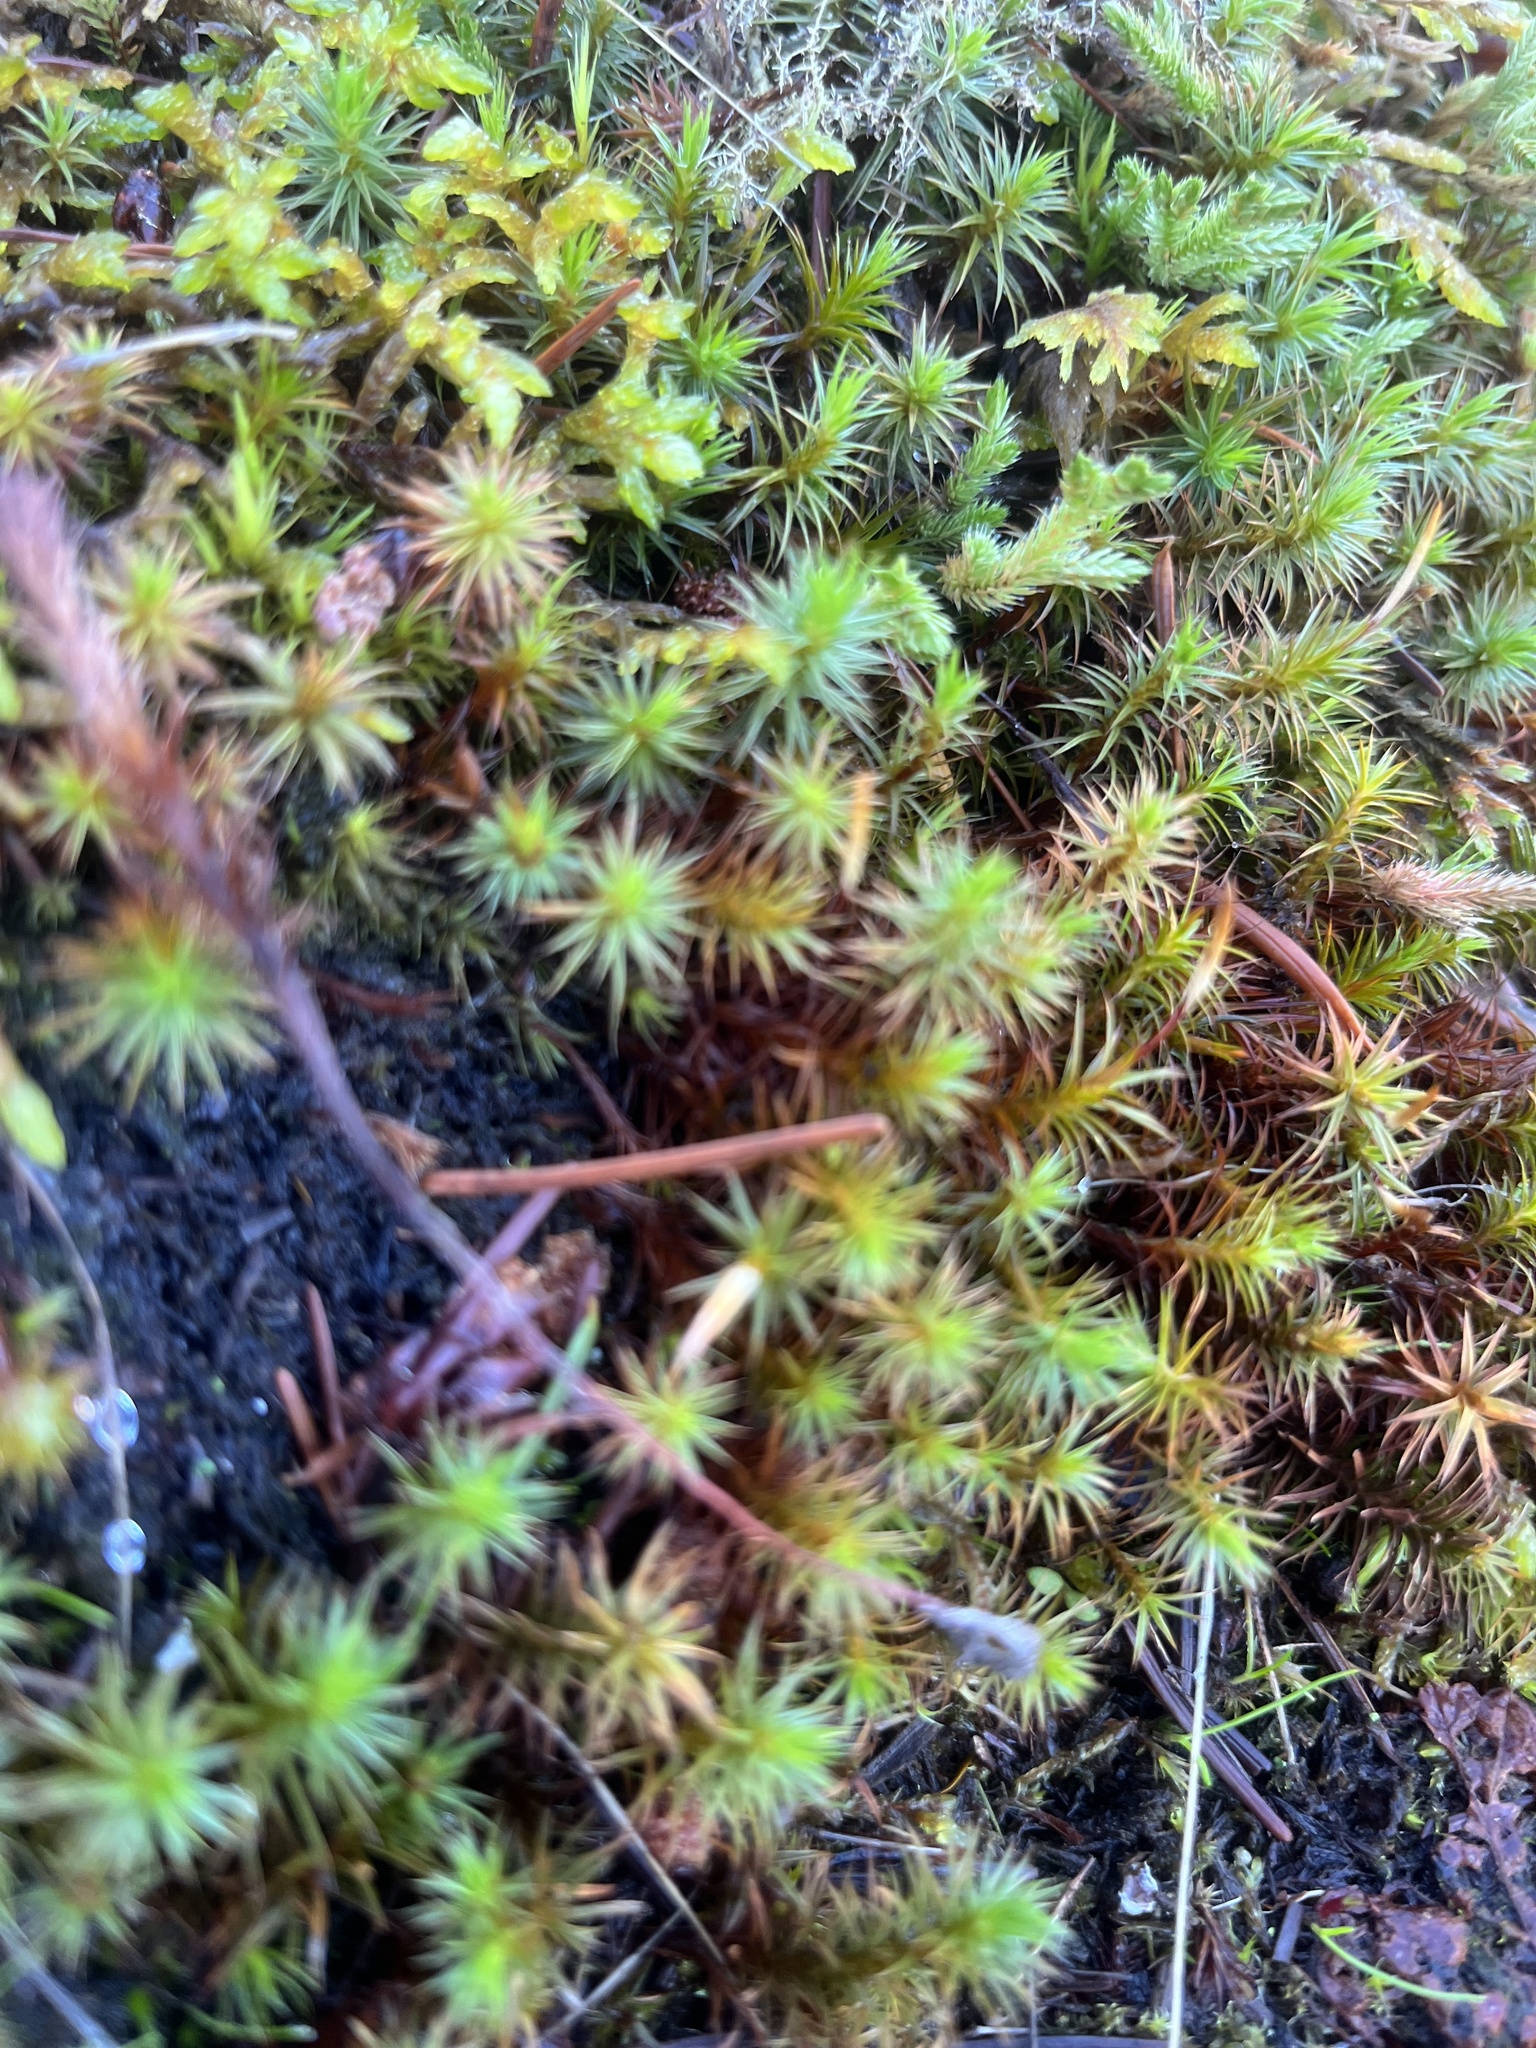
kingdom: Plantae
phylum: Bryophyta
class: Polytrichopsida
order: Polytrichales
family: Polytrichaceae
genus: Polytrichum
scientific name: Polytrichum juniperinum
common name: Juniper haircap moss
